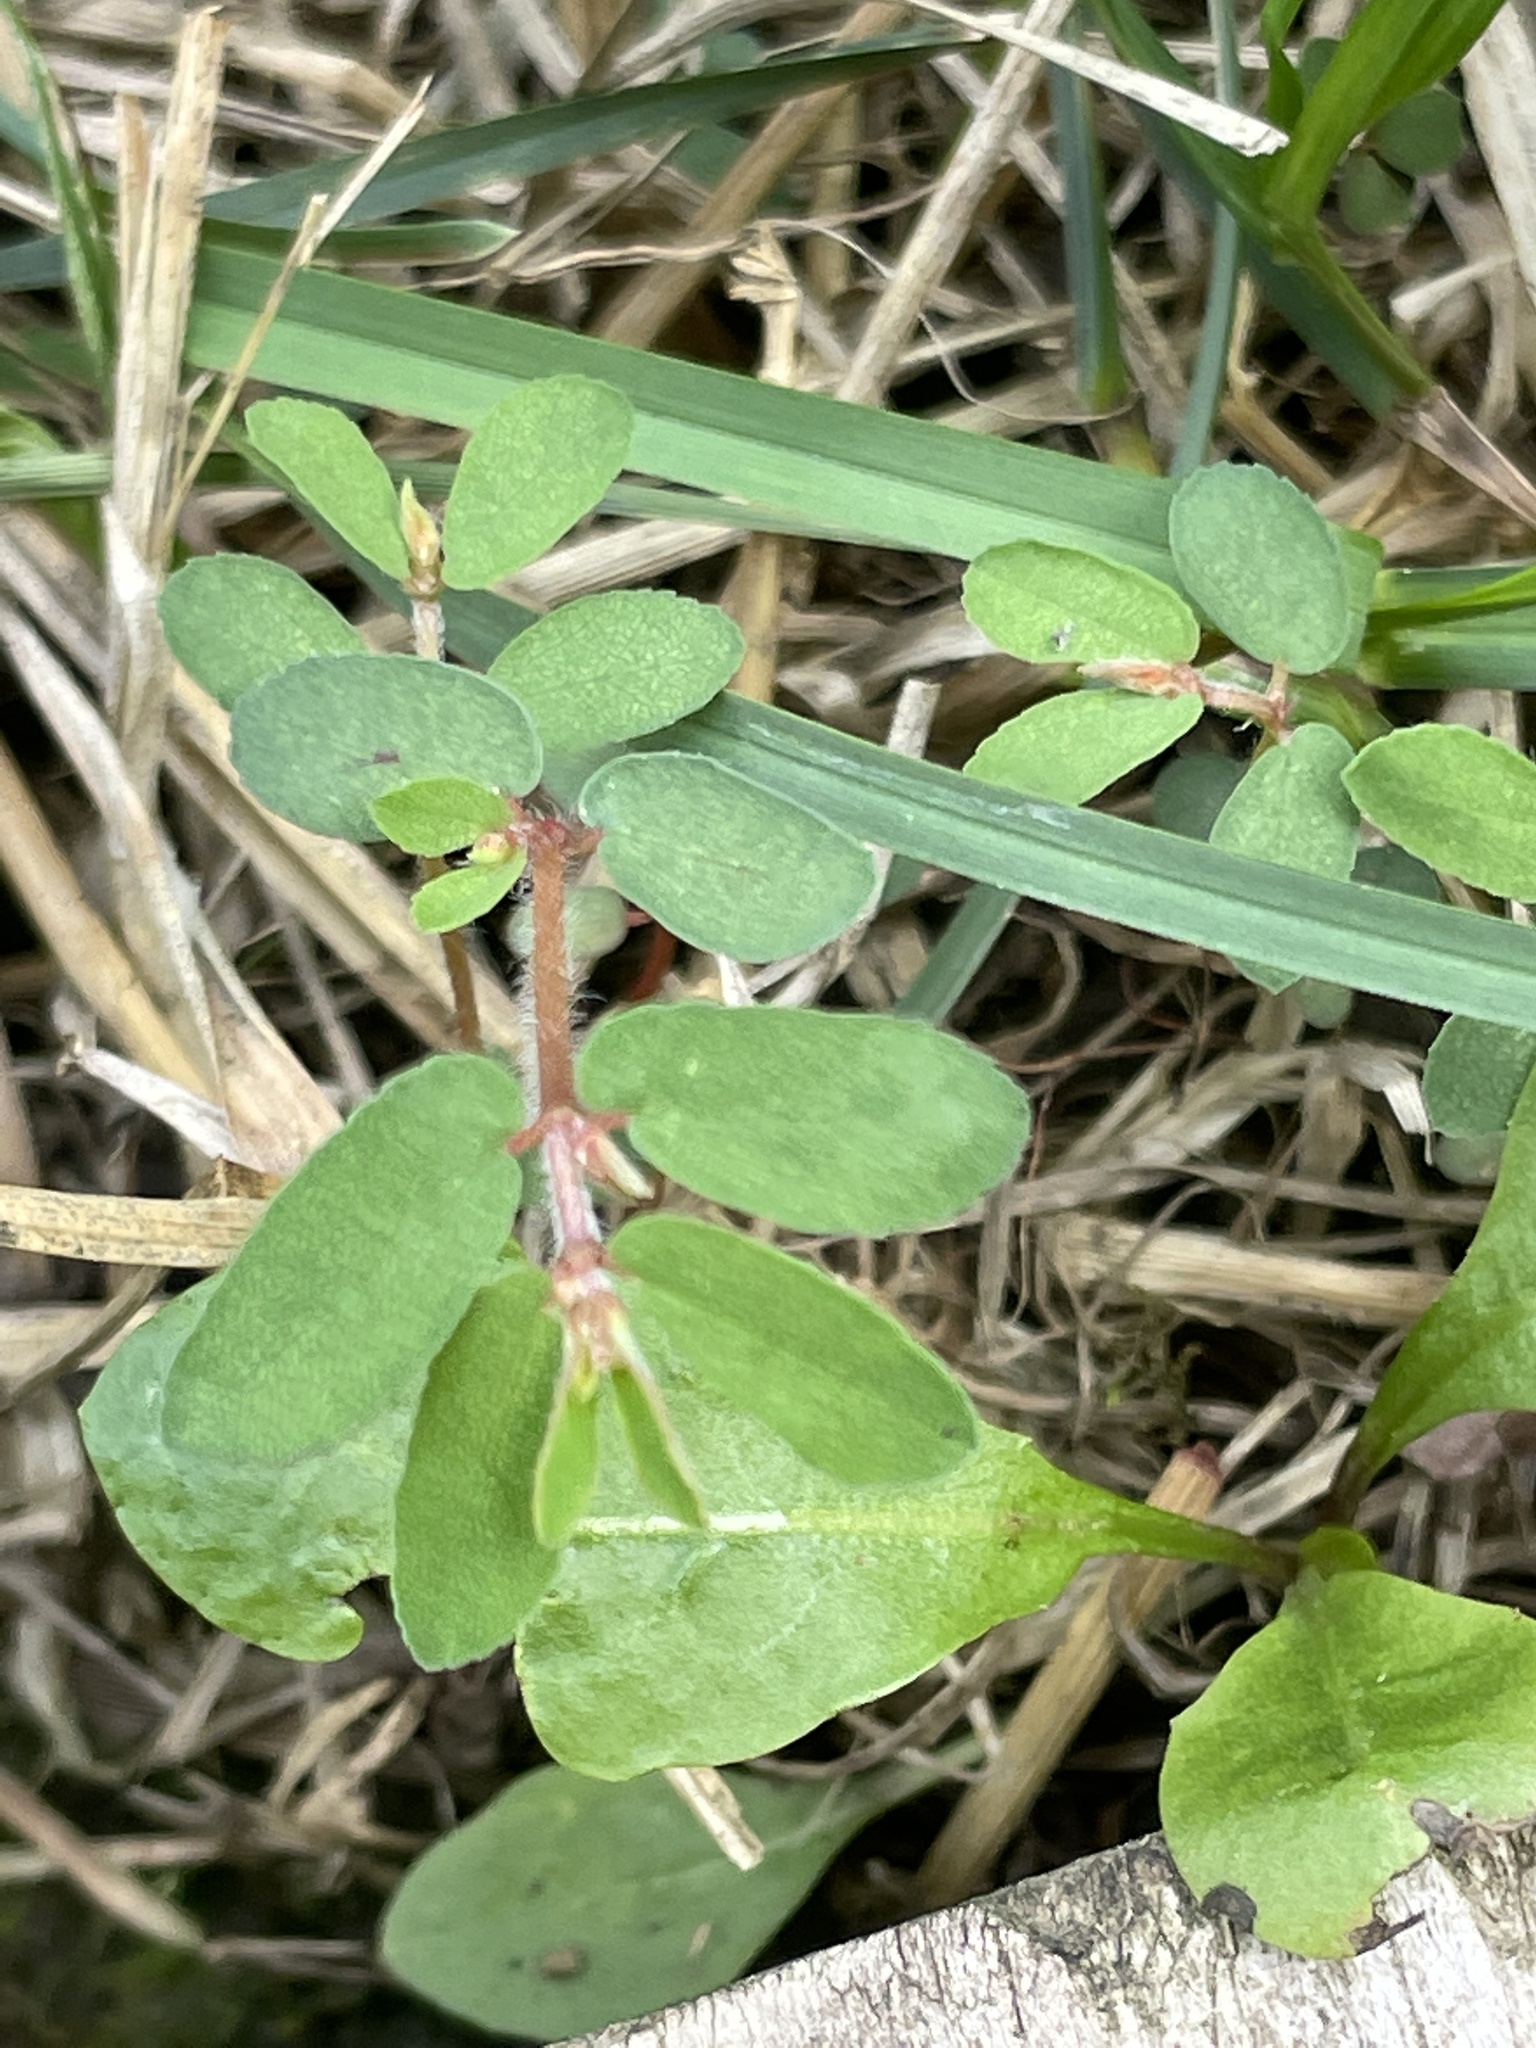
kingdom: Plantae
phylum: Tracheophyta
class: Magnoliopsida
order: Malpighiales
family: Euphorbiaceae
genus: Euphorbia
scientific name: Euphorbia maculata
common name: Spotted spurge
